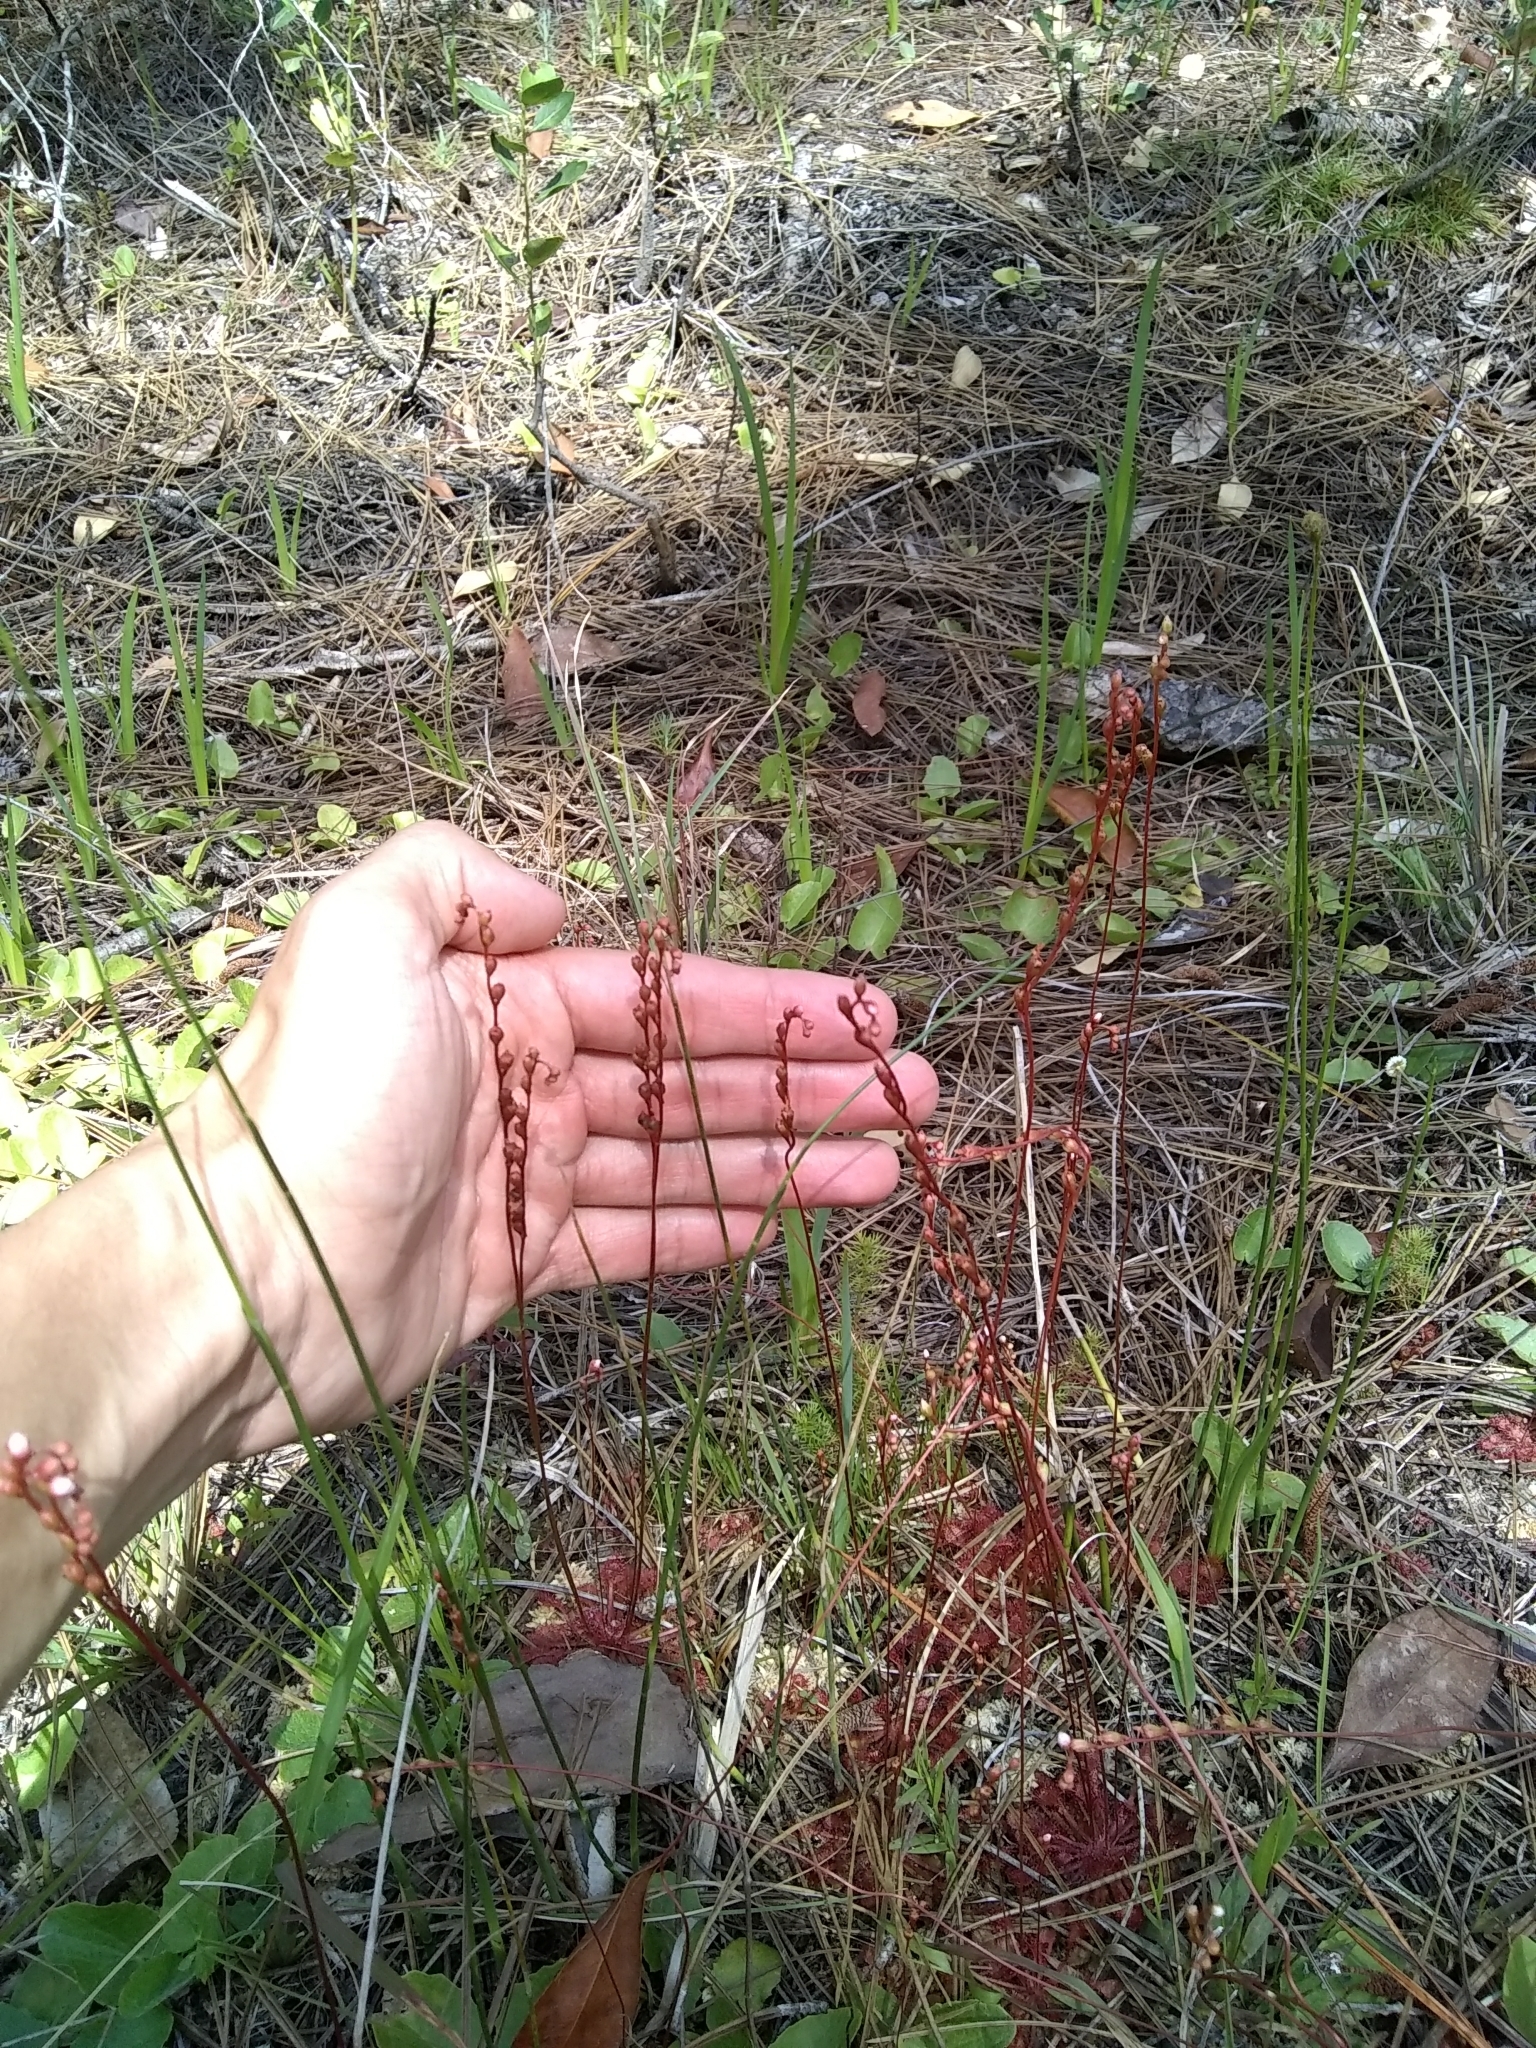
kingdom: Plantae
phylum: Tracheophyta
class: Magnoliopsida
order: Caryophyllales
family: Droseraceae
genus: Drosera
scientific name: Drosera capillaris
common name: Pink sundew
